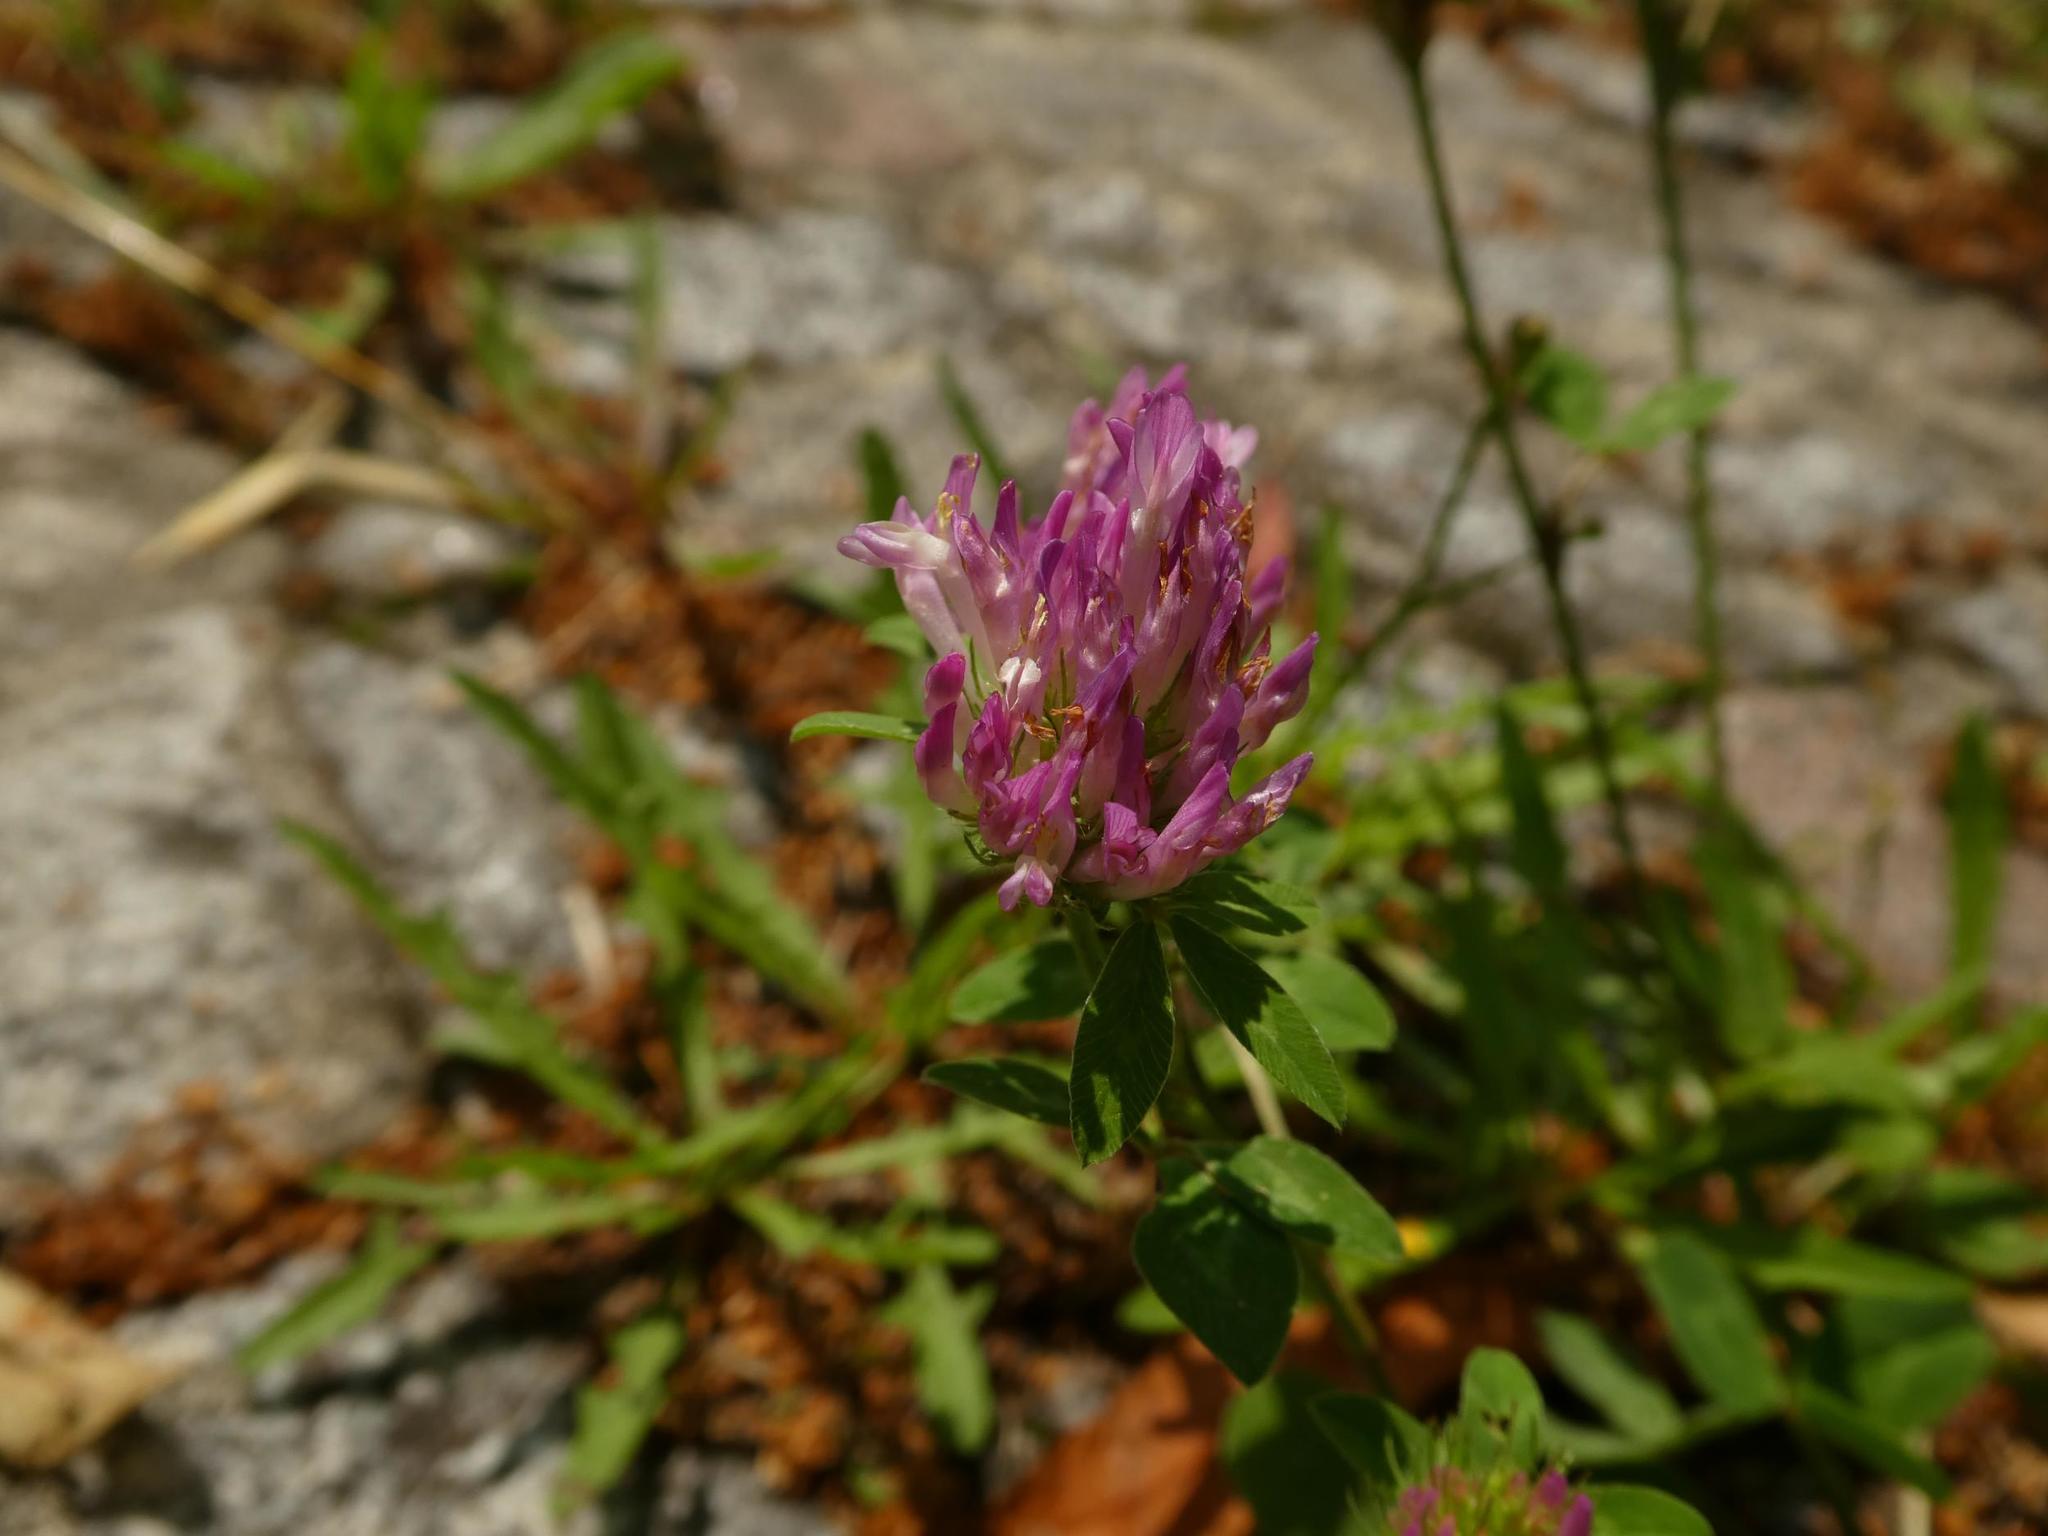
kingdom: Plantae
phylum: Tracheophyta
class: Magnoliopsida
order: Fabales
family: Fabaceae
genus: Trifolium
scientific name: Trifolium pratense
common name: Red clover
